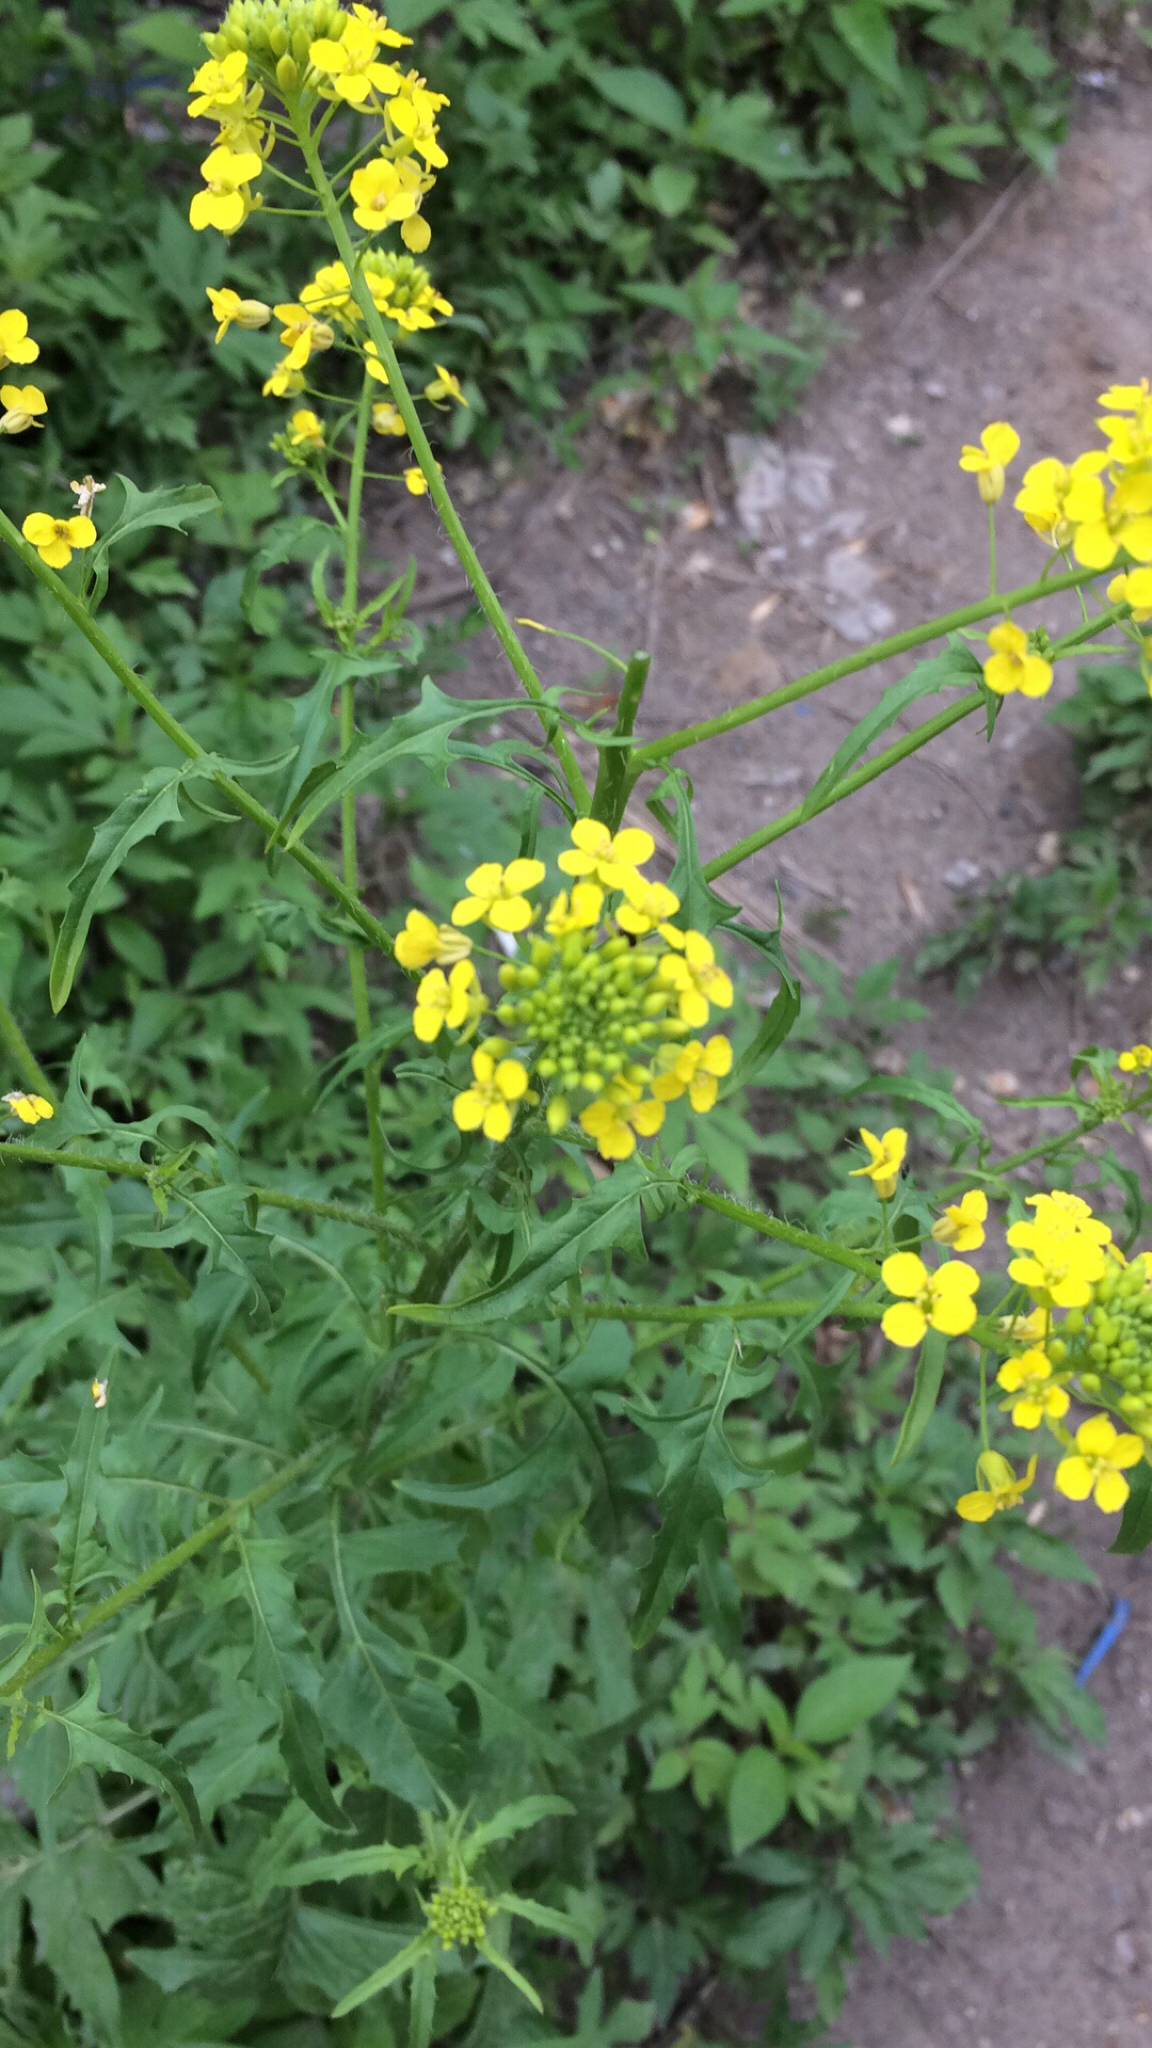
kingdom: Plantae
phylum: Tracheophyta
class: Magnoliopsida
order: Brassicales
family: Brassicaceae
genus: Sisymbrium
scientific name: Sisymbrium loeselii
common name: False london-rocket
